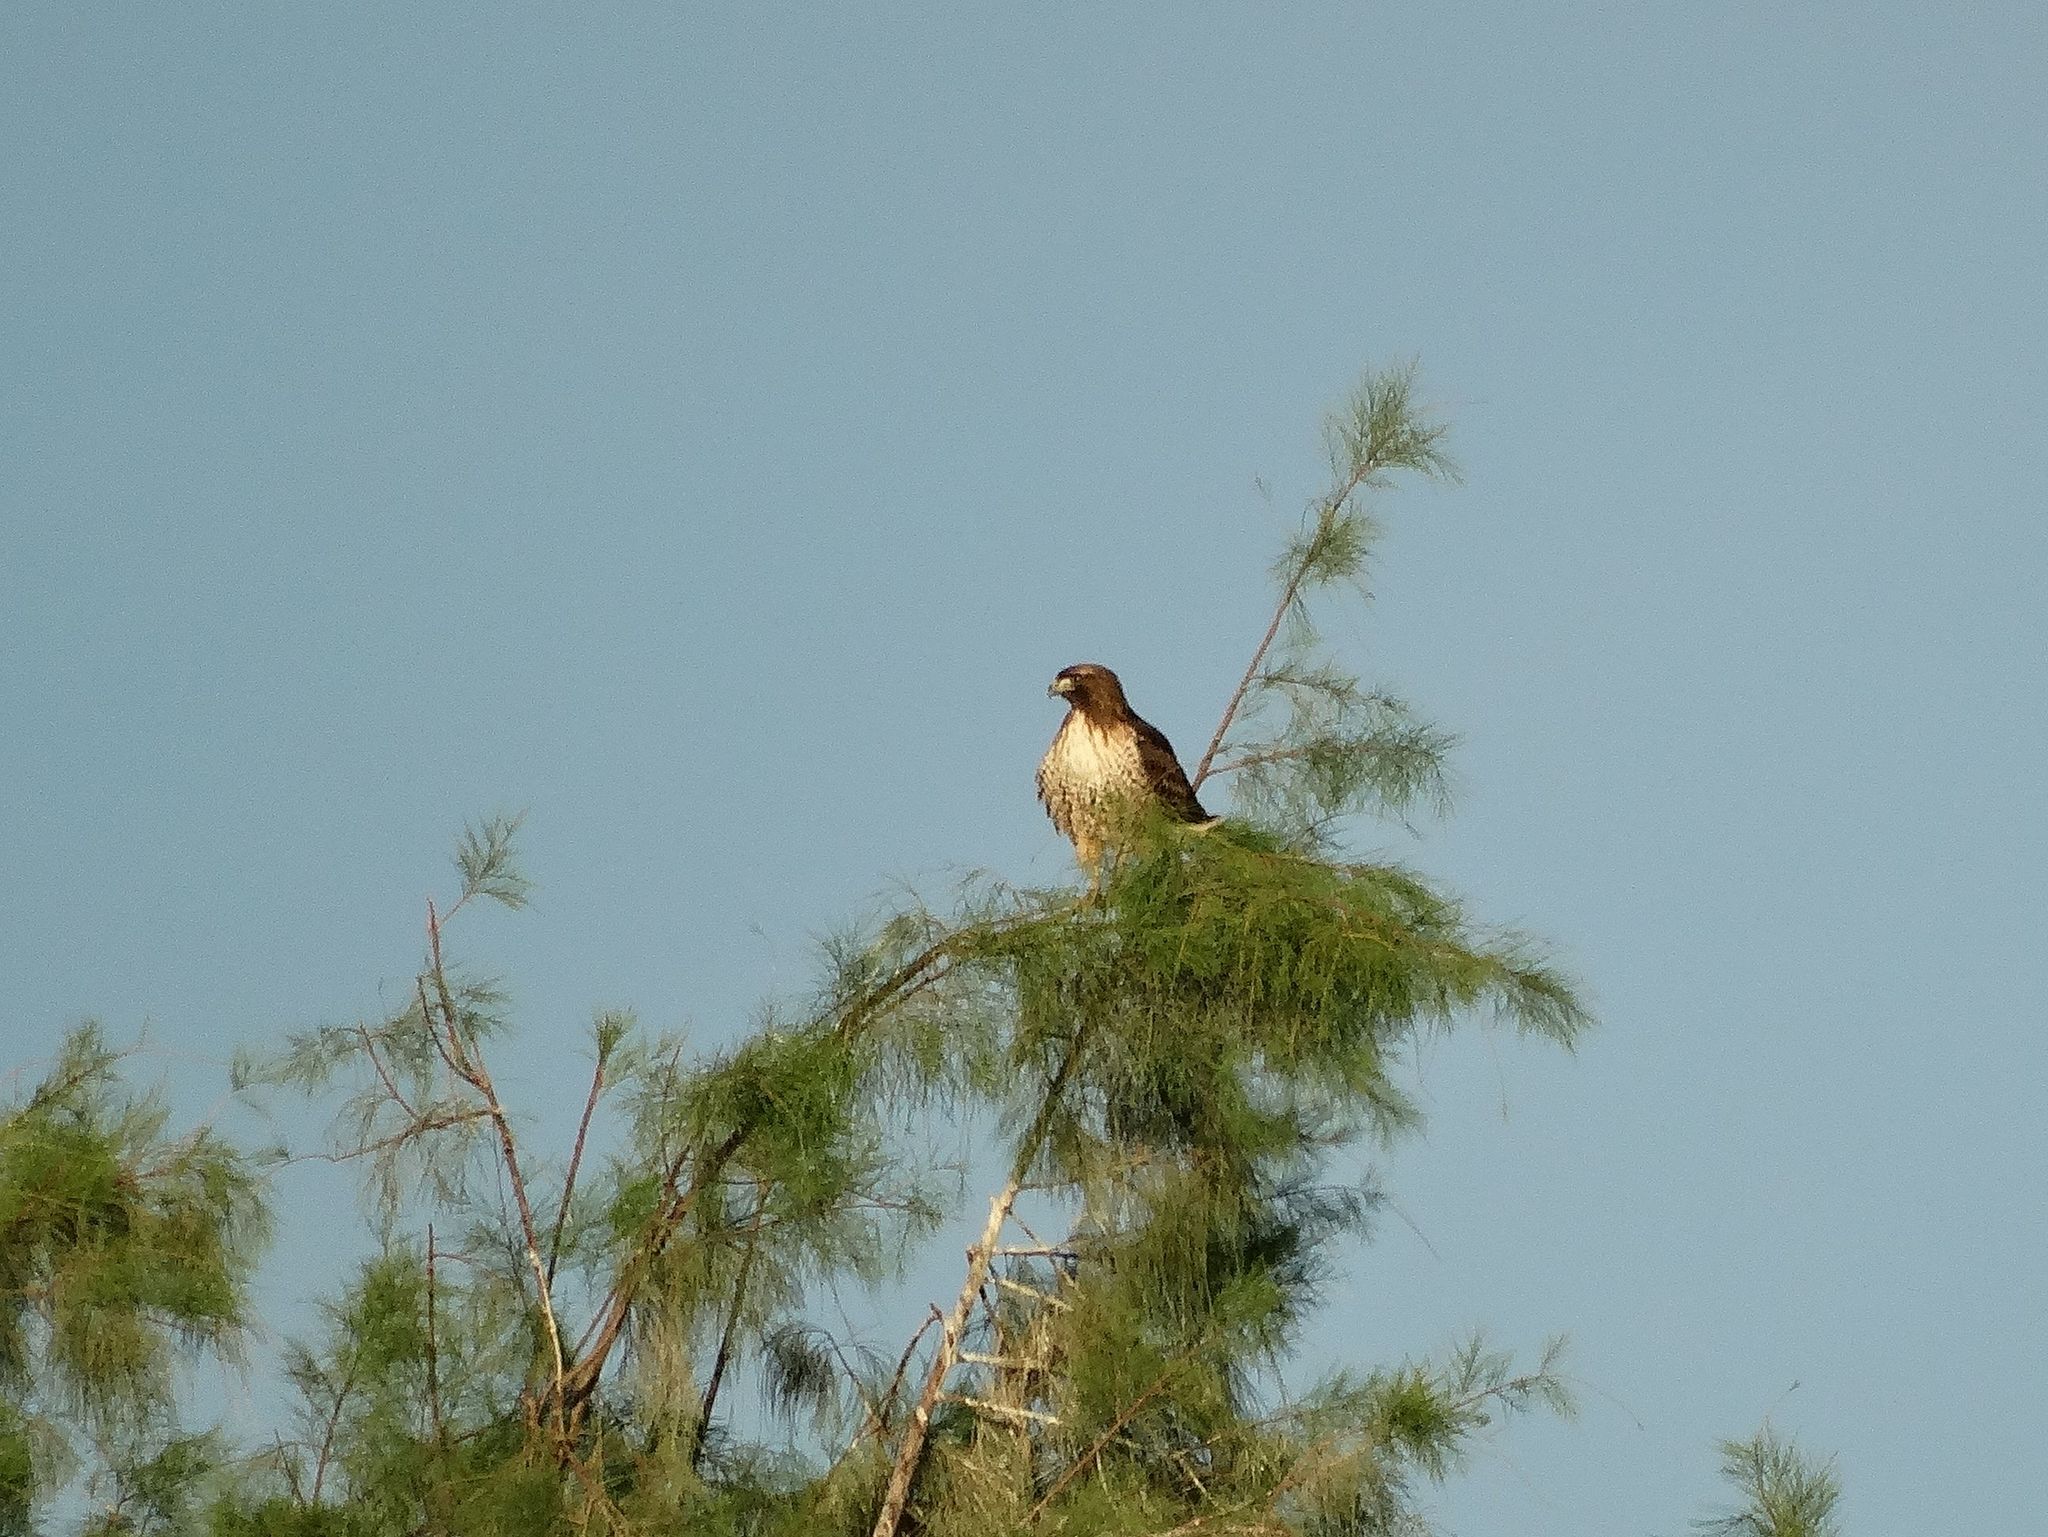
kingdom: Animalia
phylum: Chordata
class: Aves
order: Accipitriformes
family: Accipitridae
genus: Buteo
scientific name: Buteo jamaicensis
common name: Red-tailed hawk
